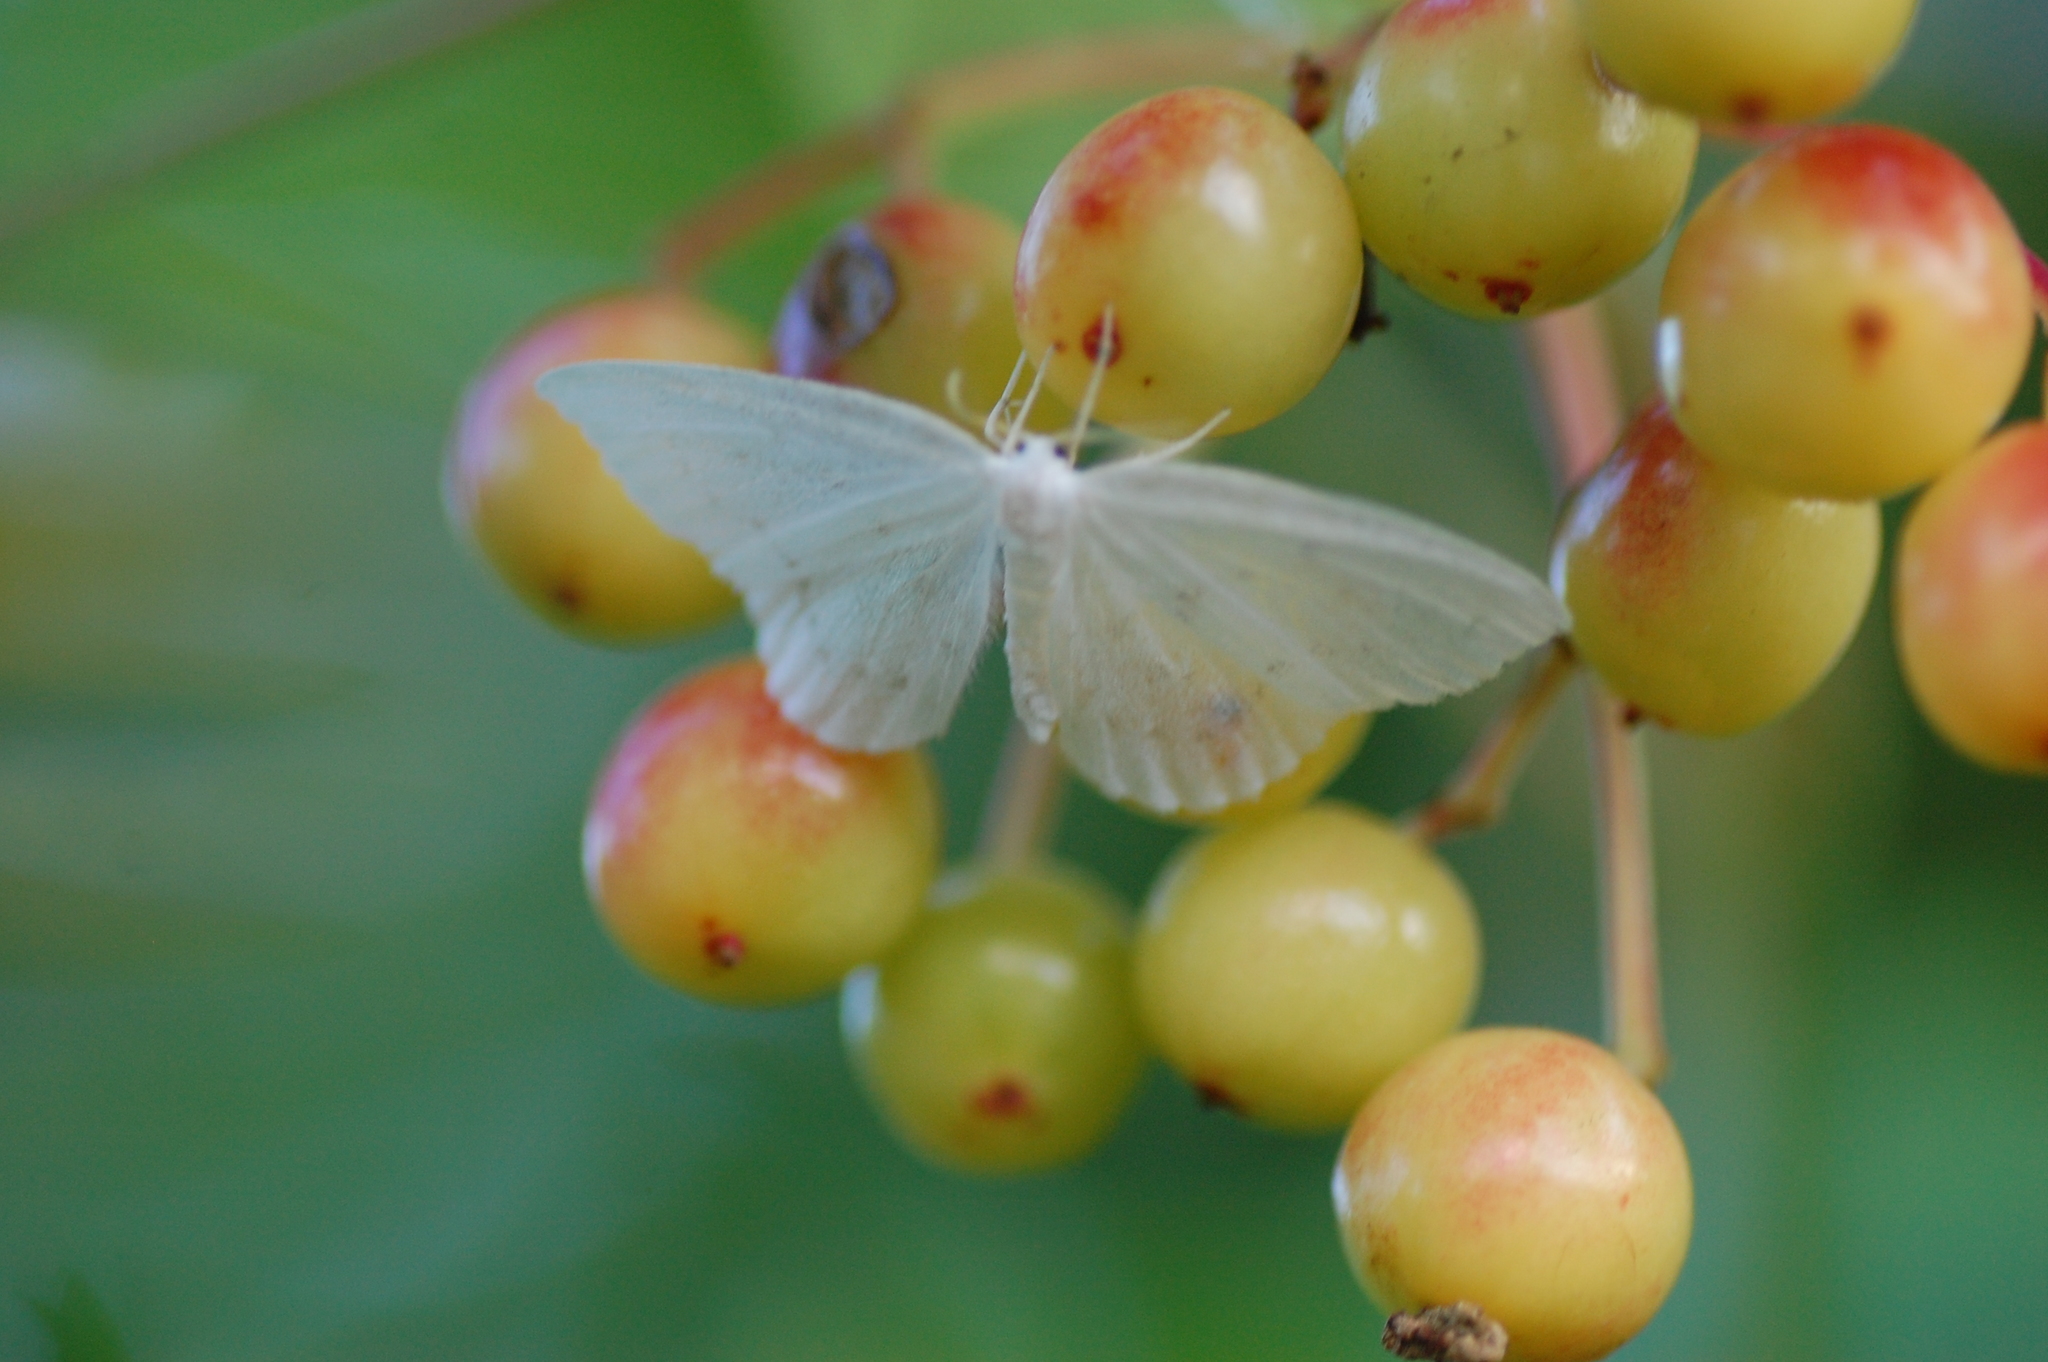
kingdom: Animalia
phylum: Arthropoda
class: Insecta
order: Lepidoptera
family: Drepanidae
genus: Eudeilinia
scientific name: Eudeilinia herminiata
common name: Northern eudeilinea moth
